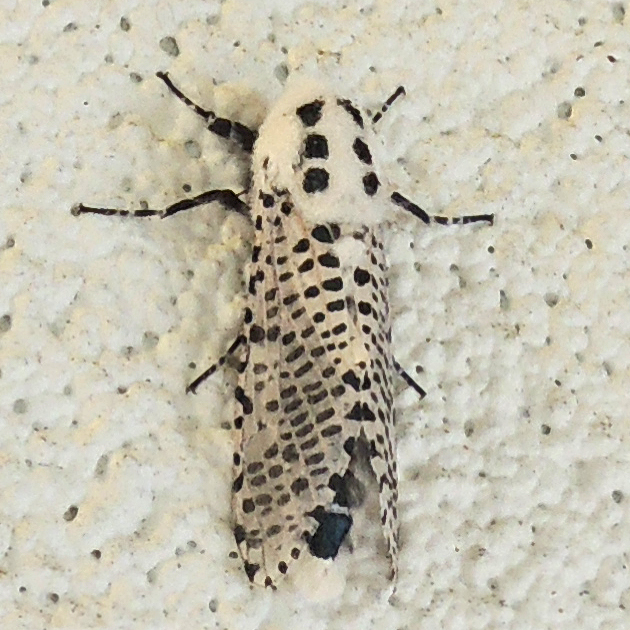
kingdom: Animalia
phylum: Arthropoda
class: Insecta
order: Lepidoptera
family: Cossidae
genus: Zeuzera
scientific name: Zeuzera pyrina
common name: Leopard moth
